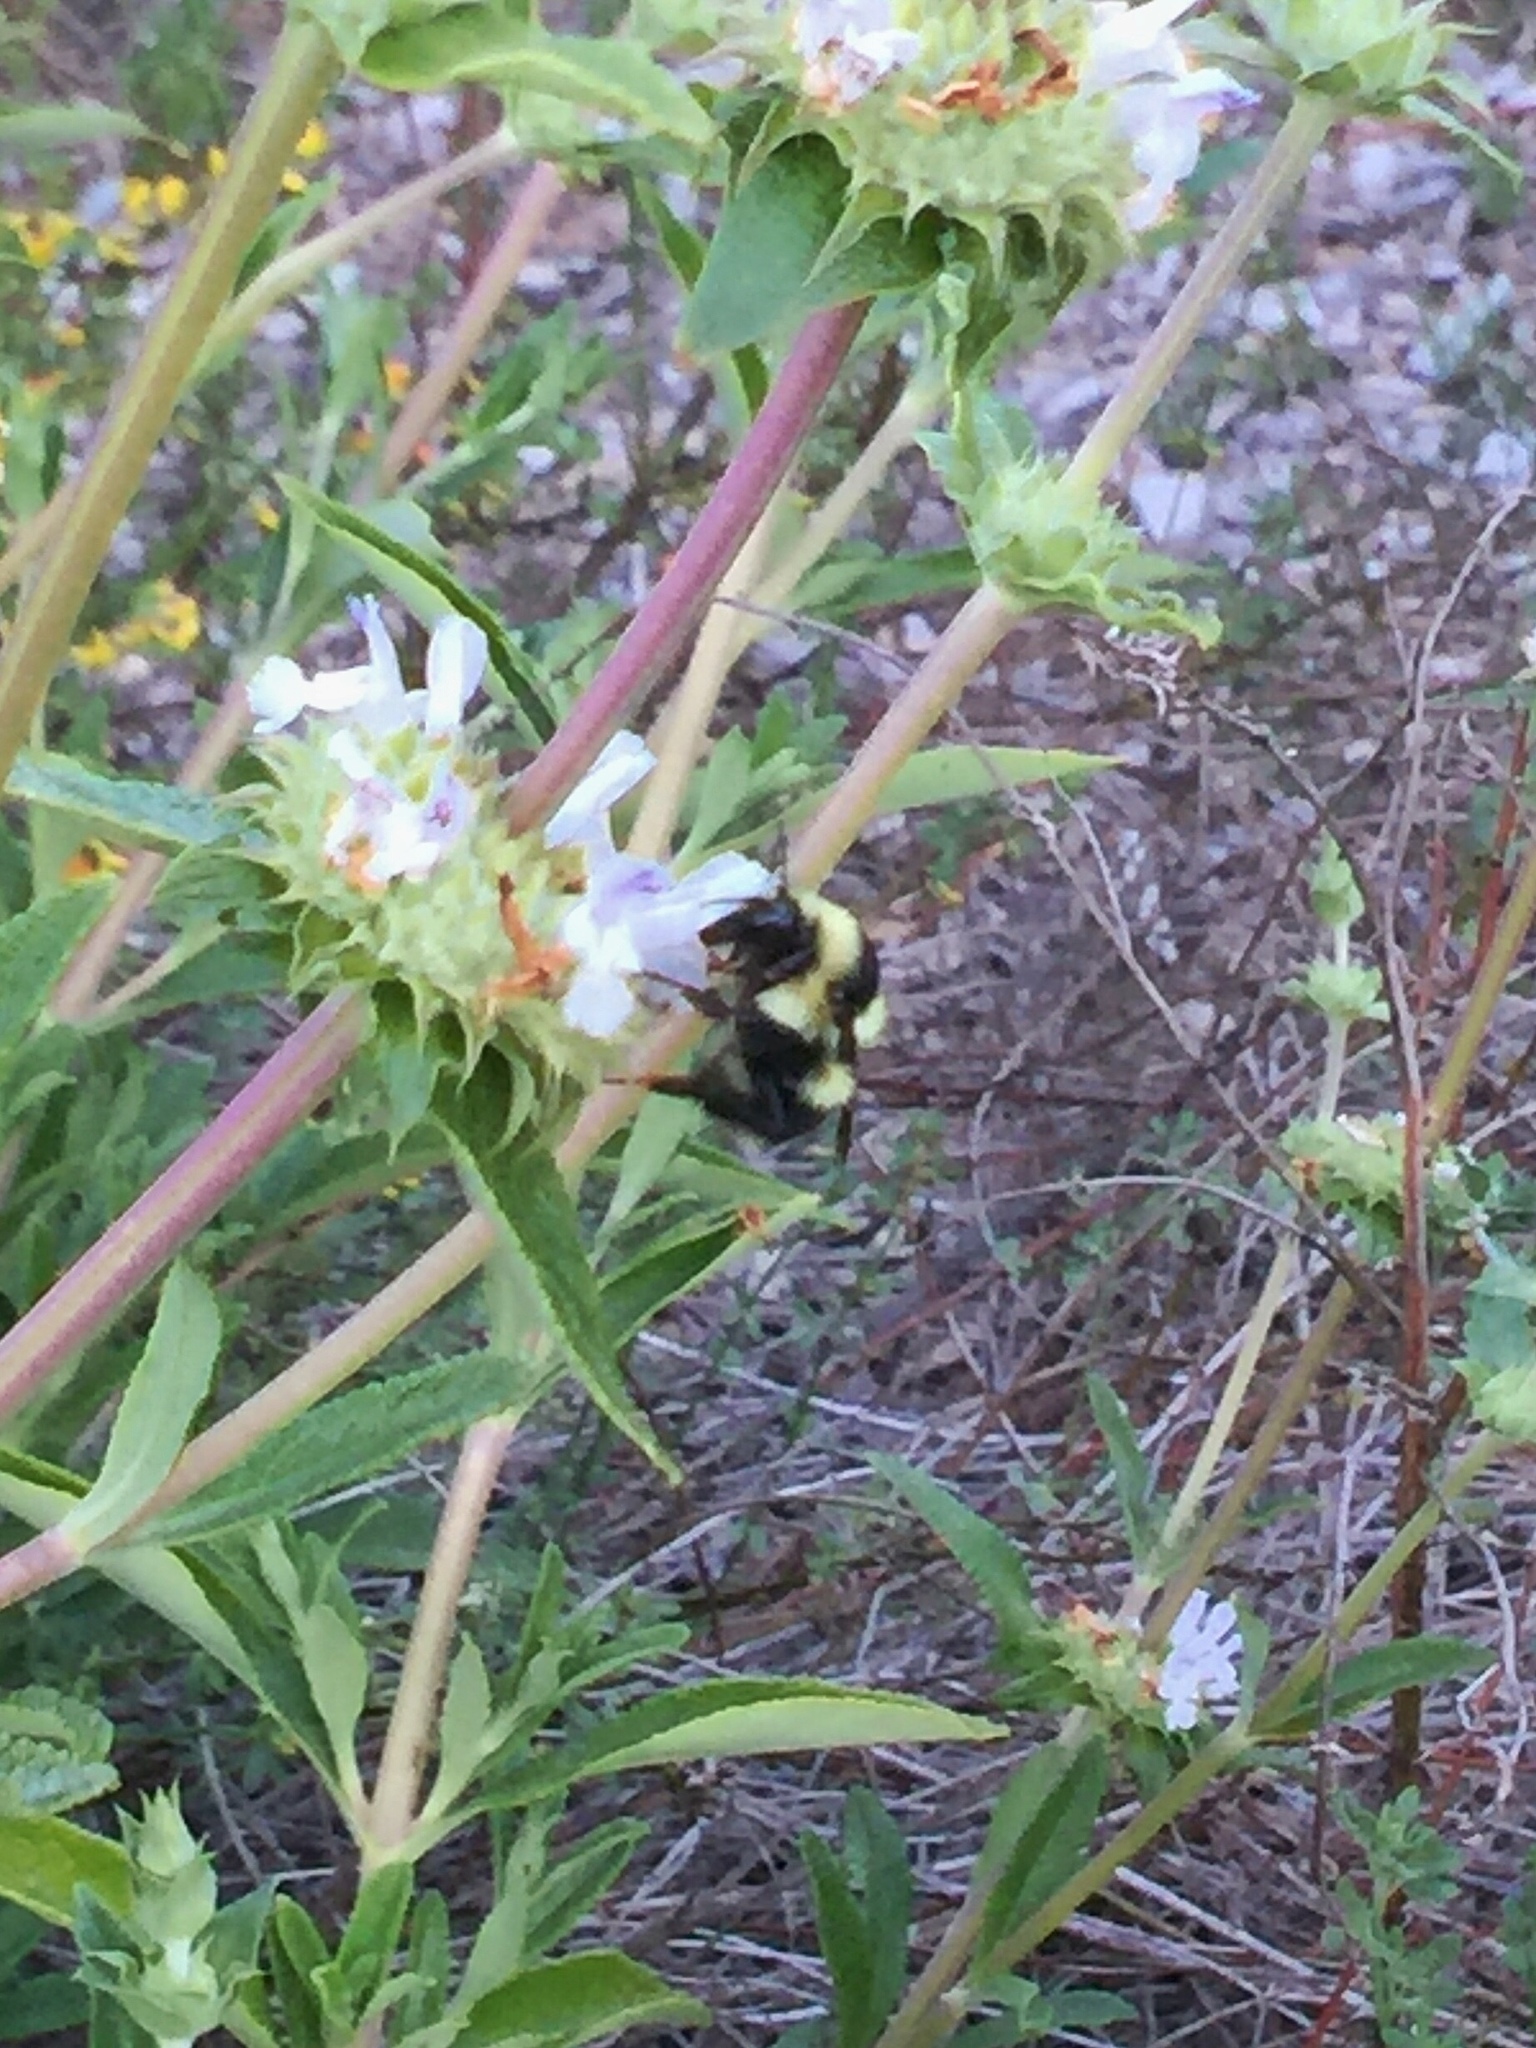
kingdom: Animalia
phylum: Arthropoda
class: Insecta
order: Hymenoptera
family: Apidae
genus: Bombus
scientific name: Bombus melanopygus
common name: Black tail bumble bee
